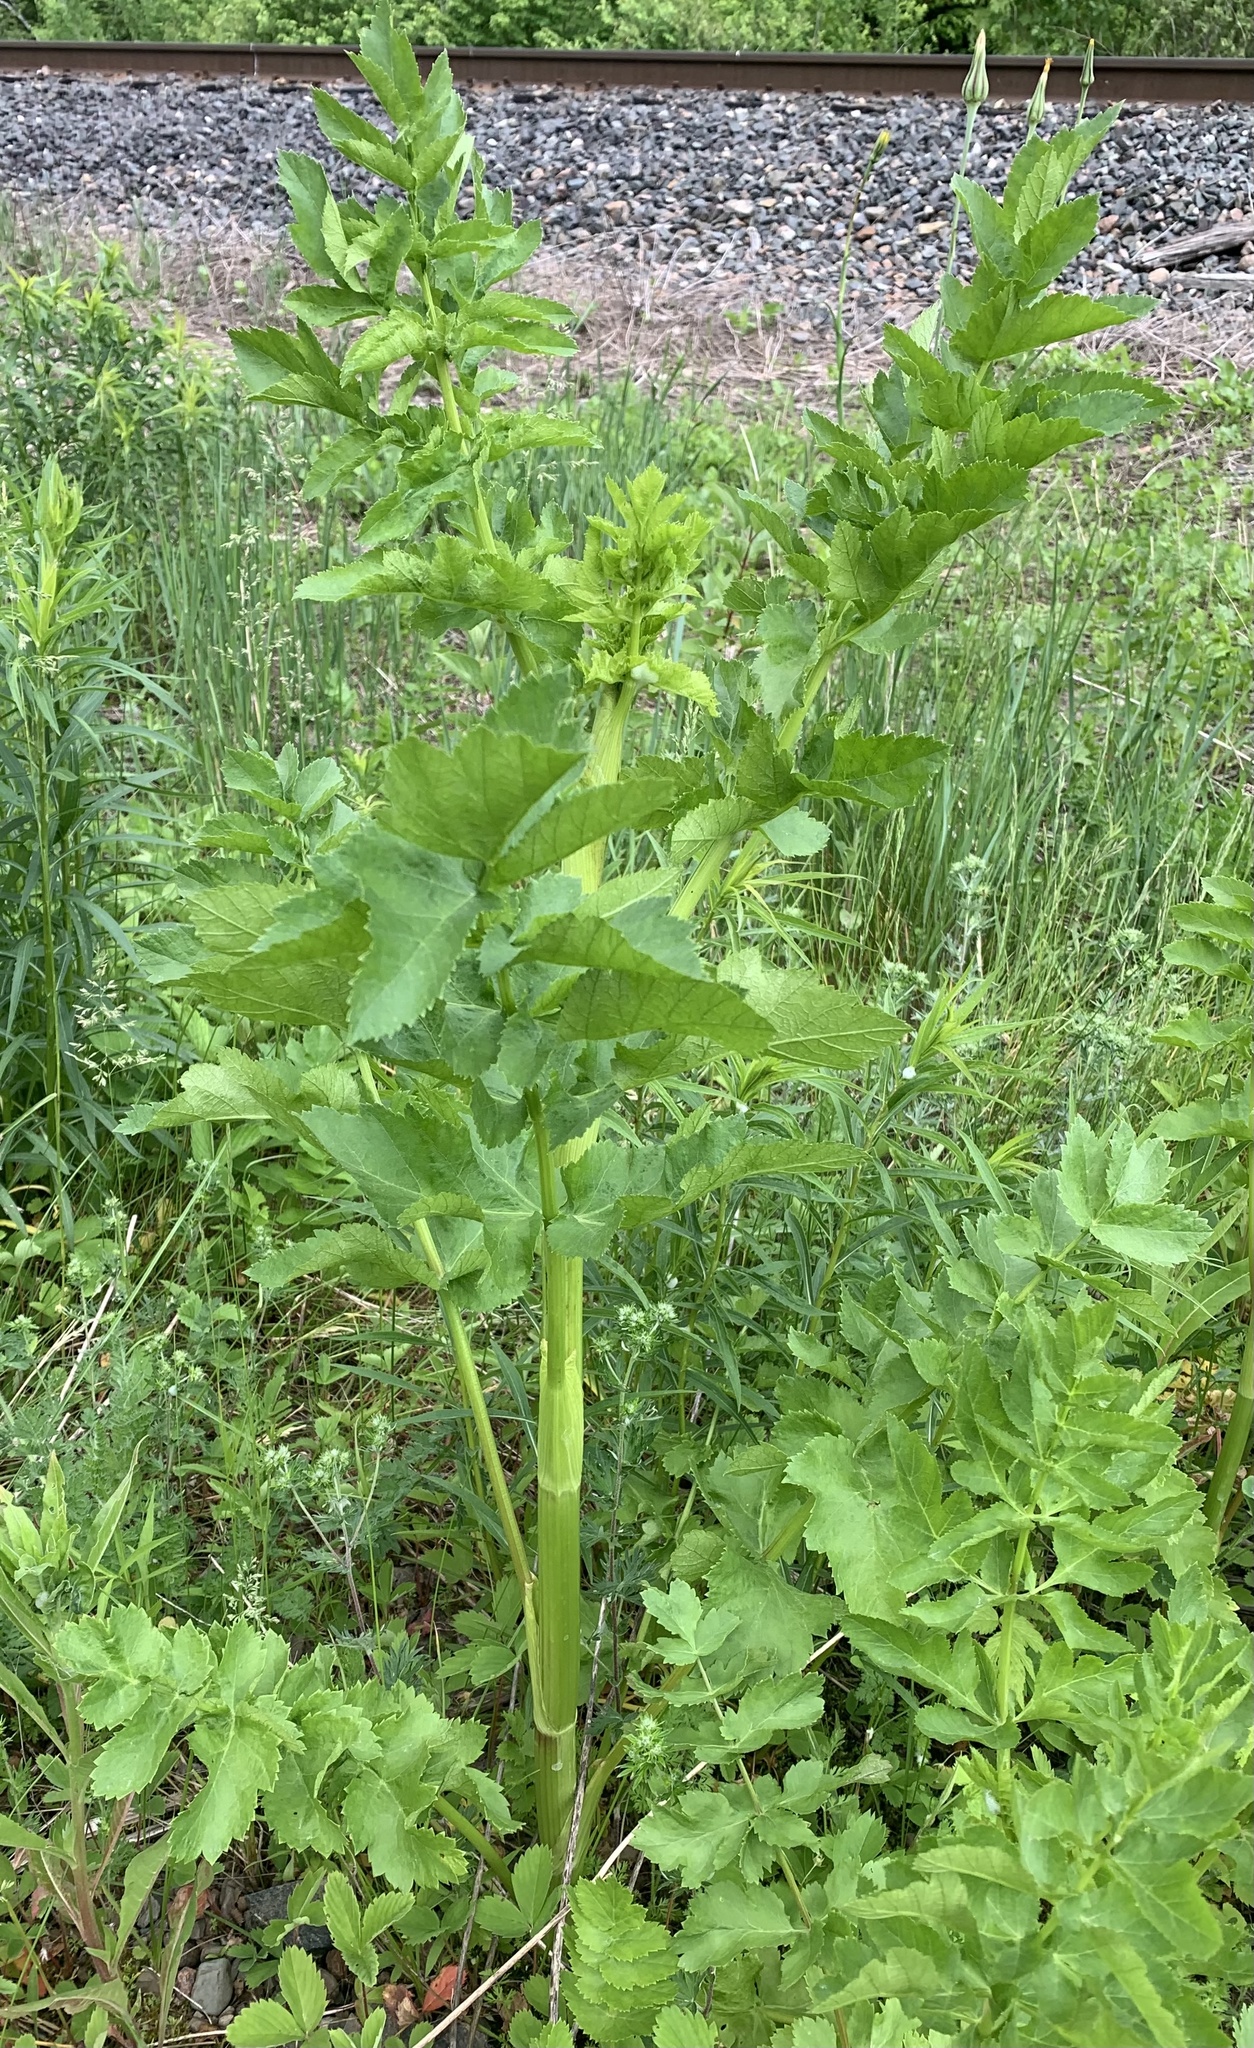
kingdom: Plantae
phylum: Tracheophyta
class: Magnoliopsida
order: Apiales
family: Apiaceae
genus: Pastinaca
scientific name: Pastinaca sativa
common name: Wild parsnip
